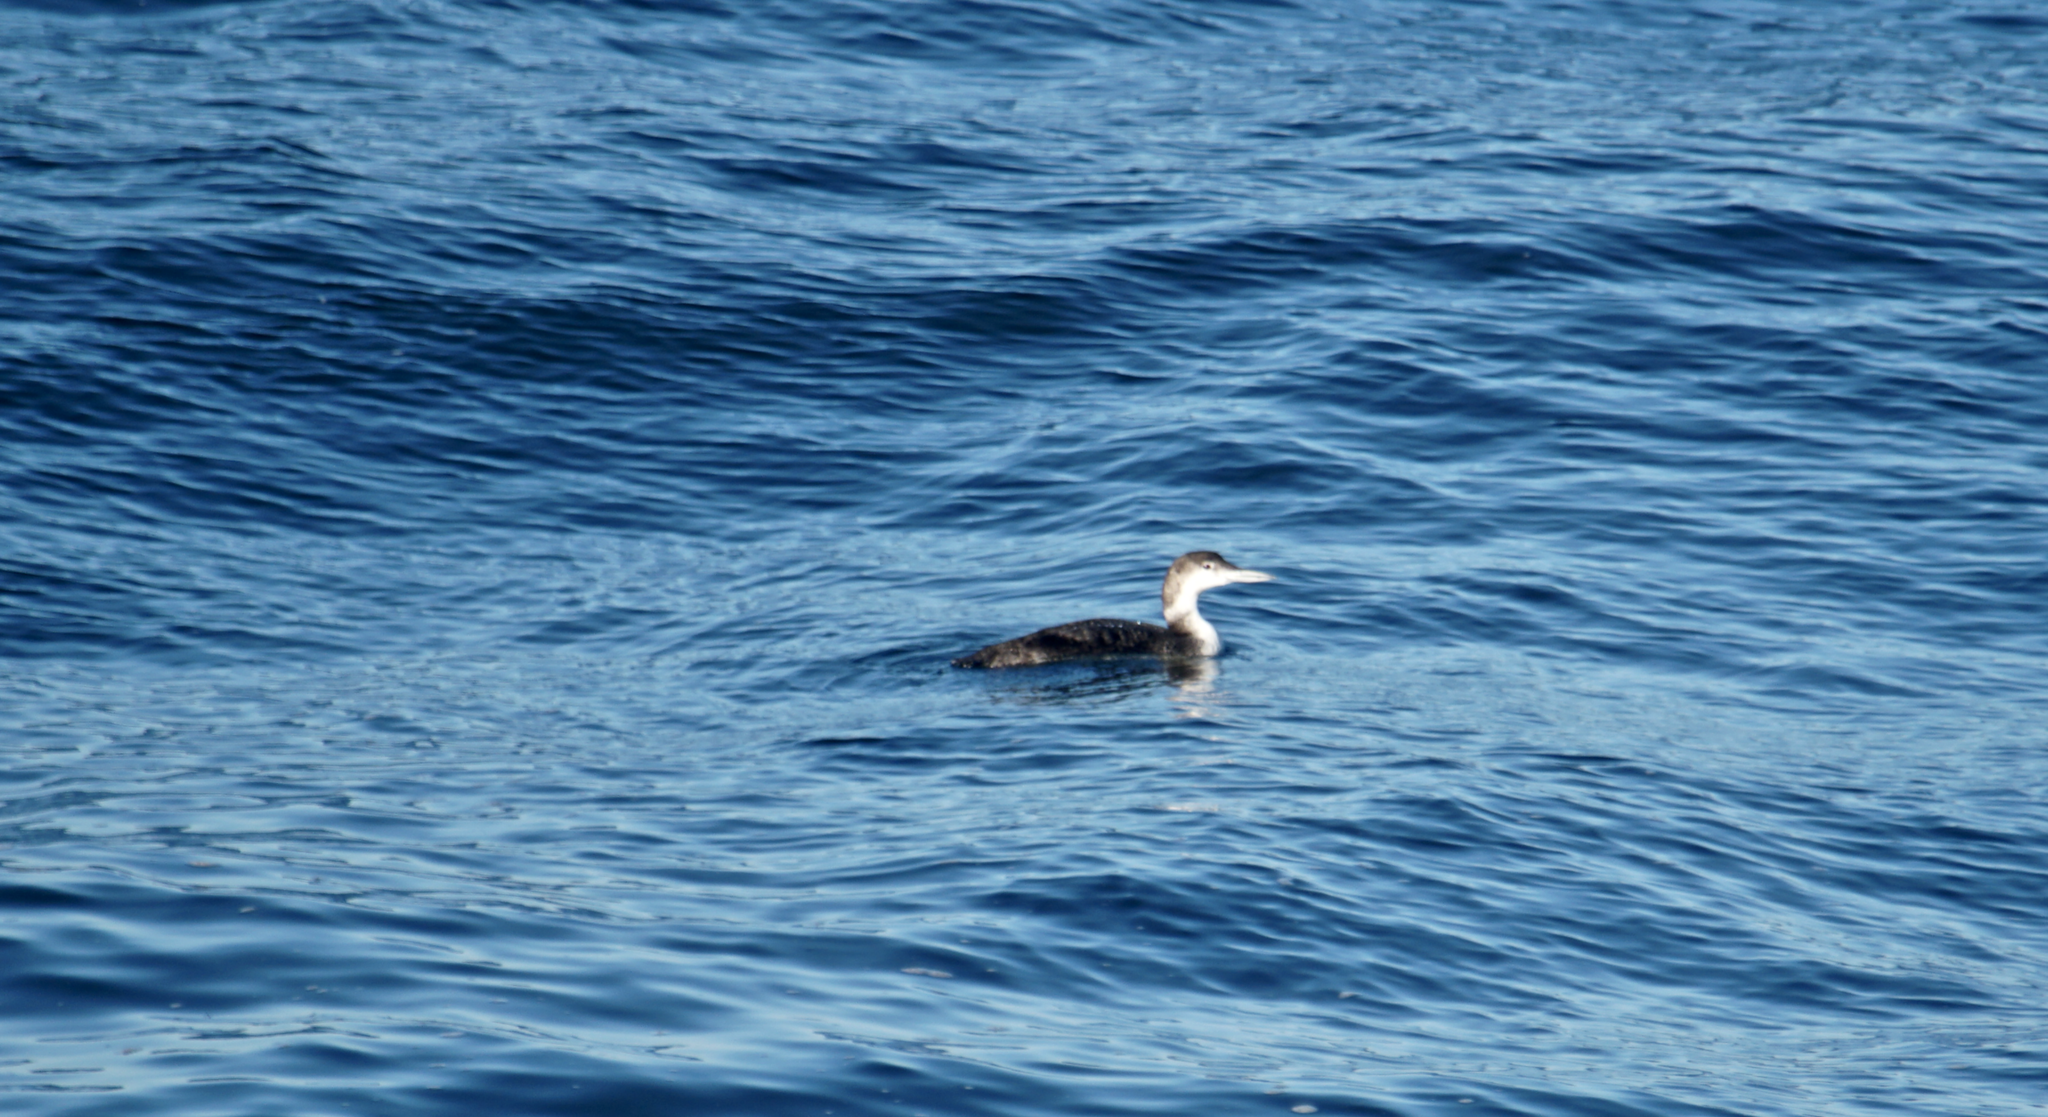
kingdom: Animalia
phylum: Chordata
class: Aves
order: Gaviiformes
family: Gaviidae
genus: Gavia
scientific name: Gavia immer
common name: Common loon
